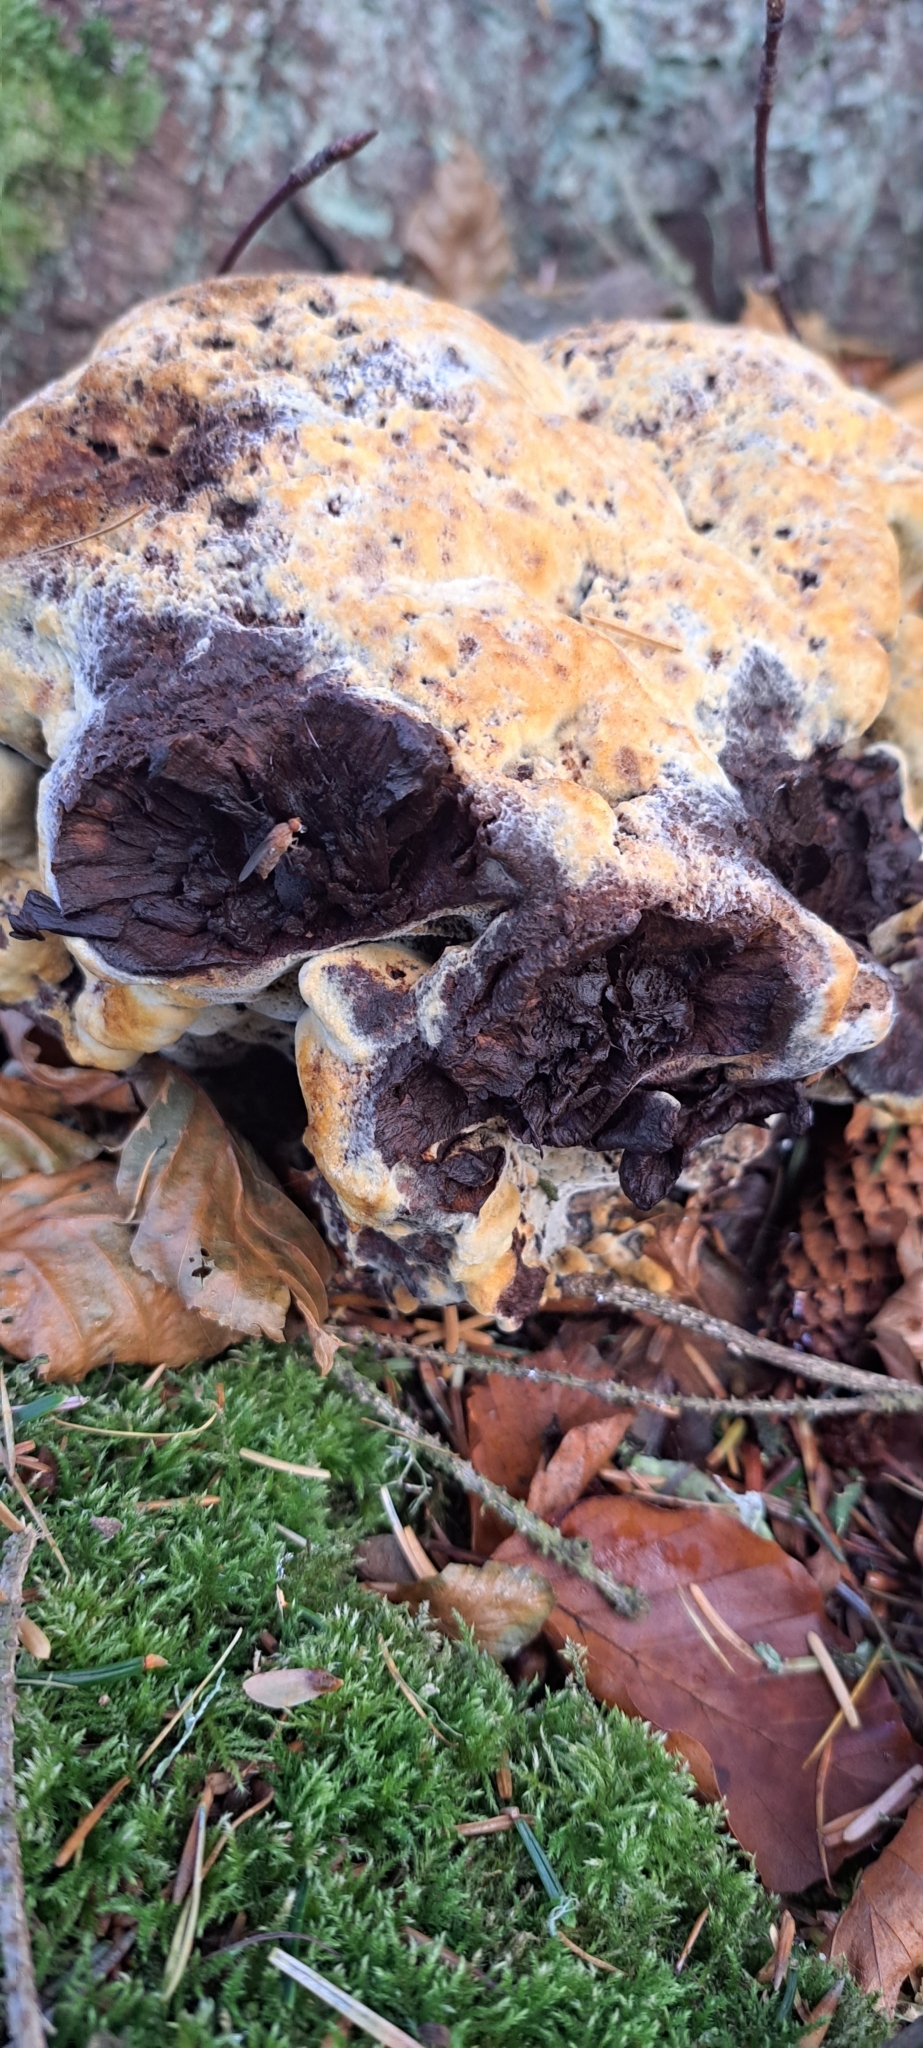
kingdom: Fungi
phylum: Basidiomycota
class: Agaricomycetes
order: Polyporales
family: Laetiporaceae
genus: Phaeolus
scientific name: Phaeolus schweinitzii
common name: Dyer's mazegill
